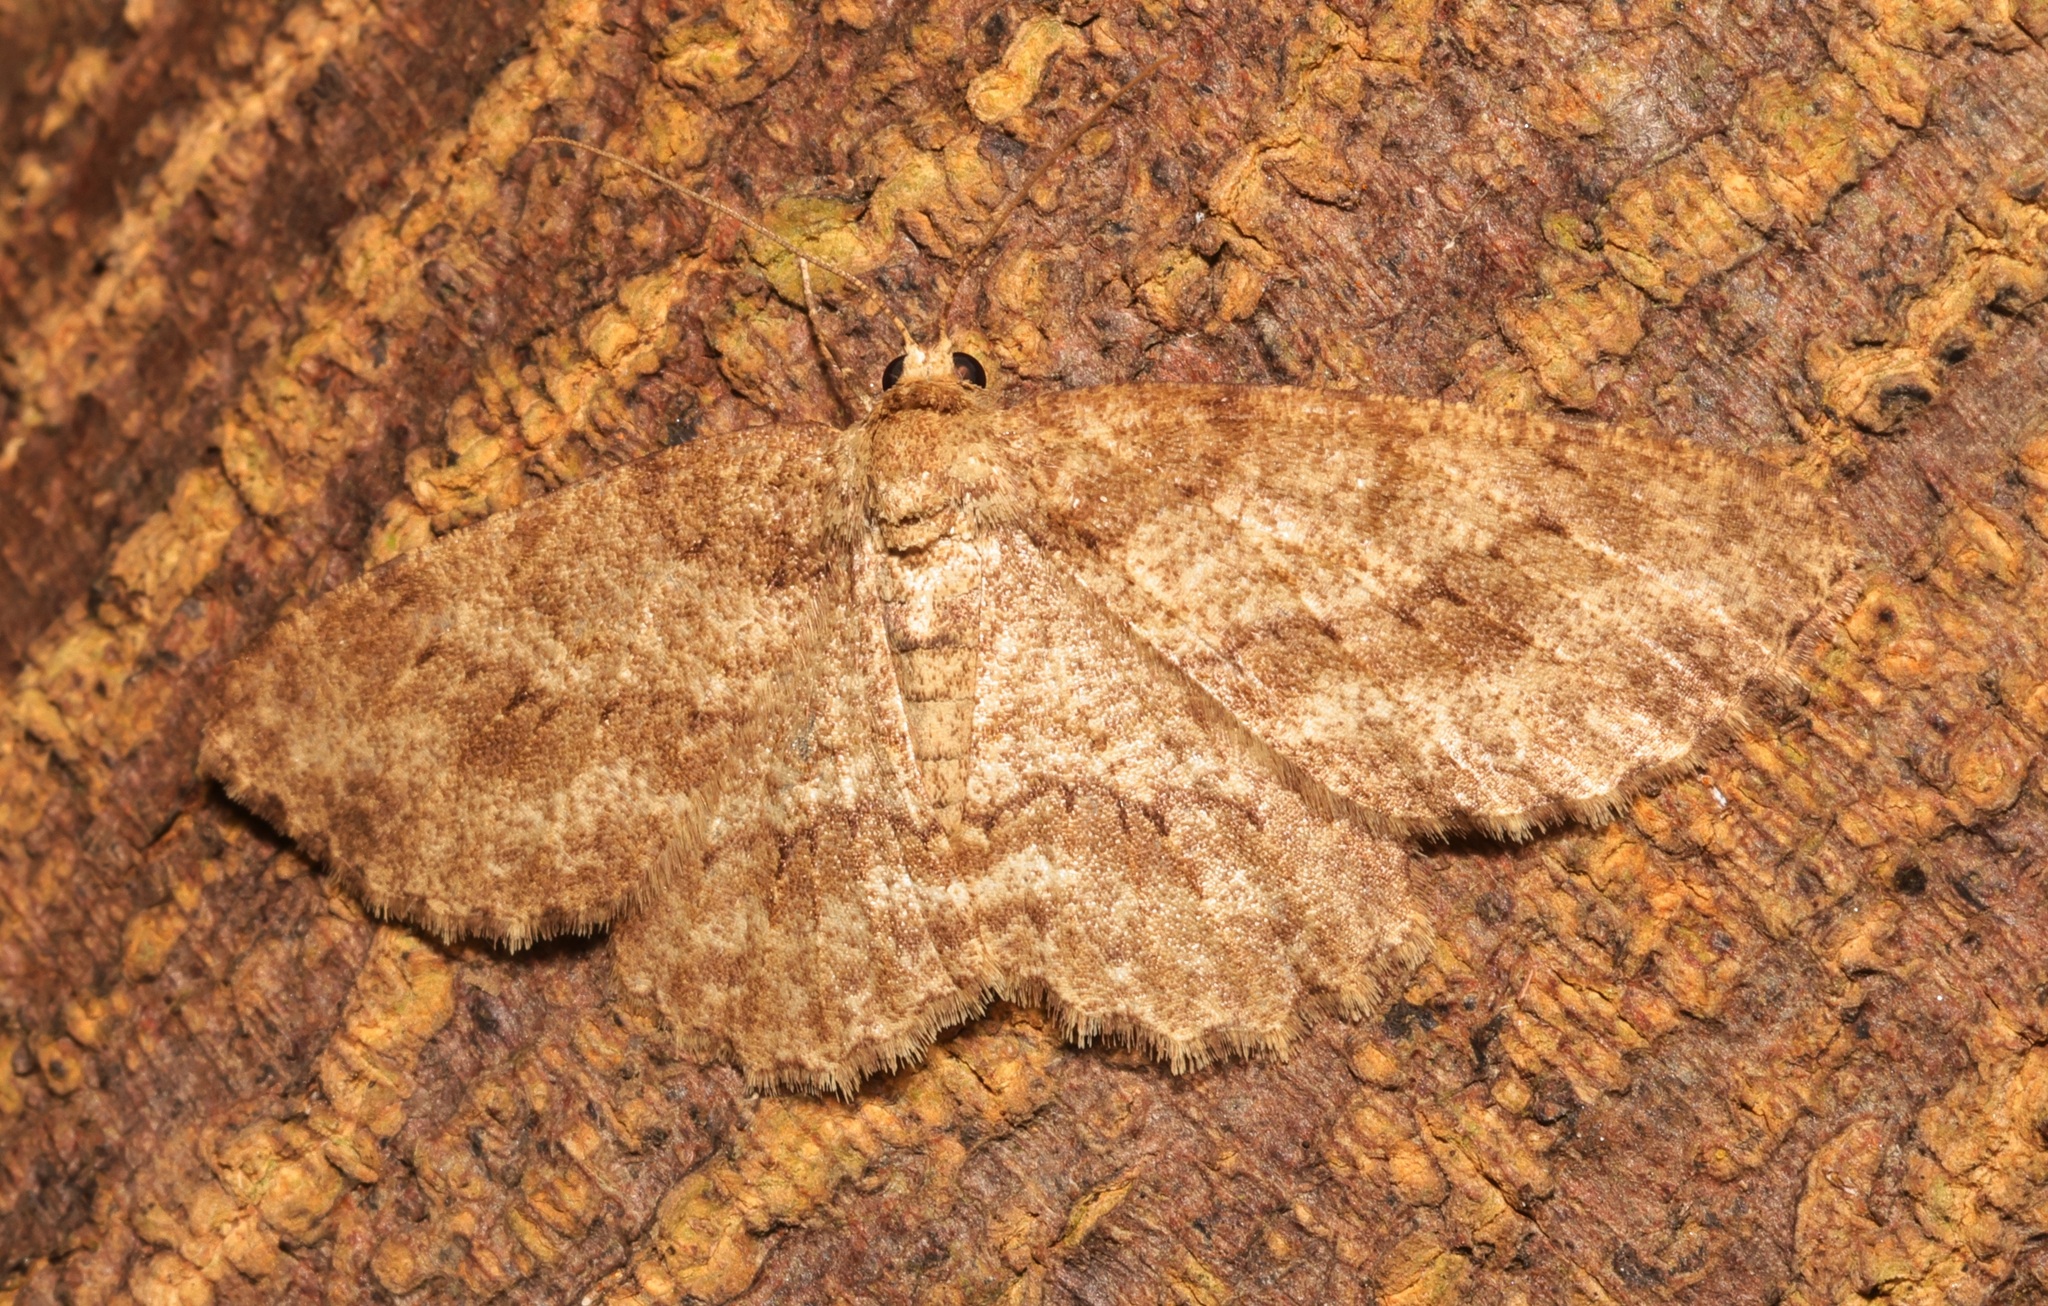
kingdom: Animalia
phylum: Arthropoda
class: Insecta
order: Lepidoptera
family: Geometridae
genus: Ectropis
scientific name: Ectropis bhurmitra
